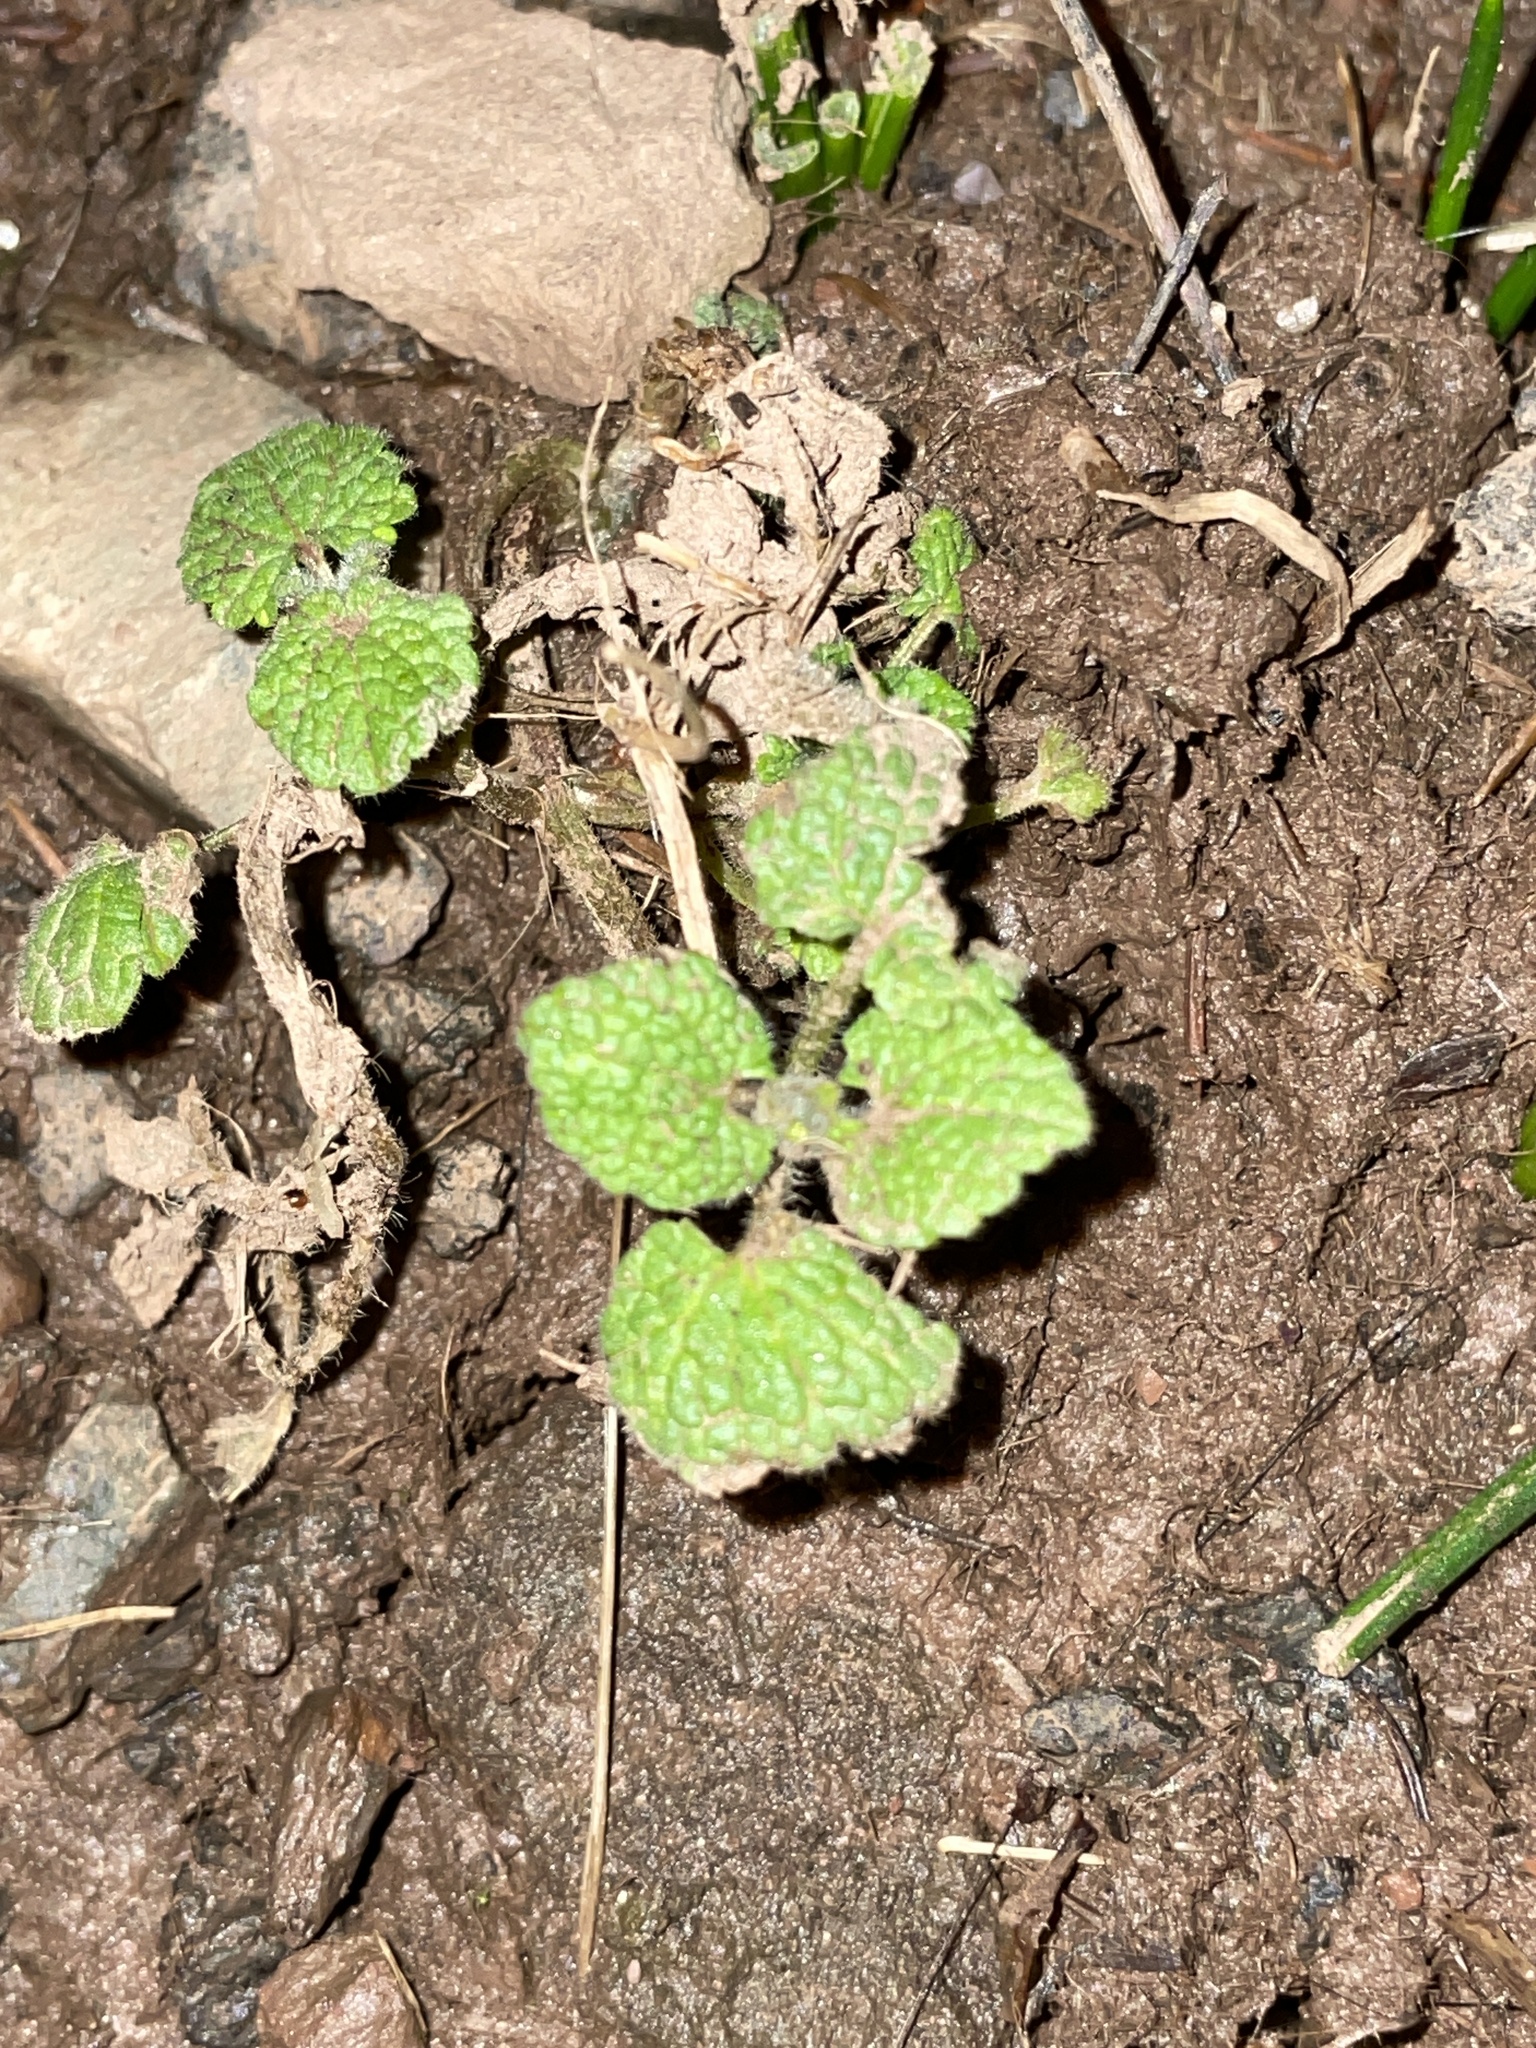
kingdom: Plantae
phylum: Tracheophyta
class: Magnoliopsida
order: Lamiales
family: Lamiaceae
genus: Lamium
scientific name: Lamium purpureum
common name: Red dead-nettle
